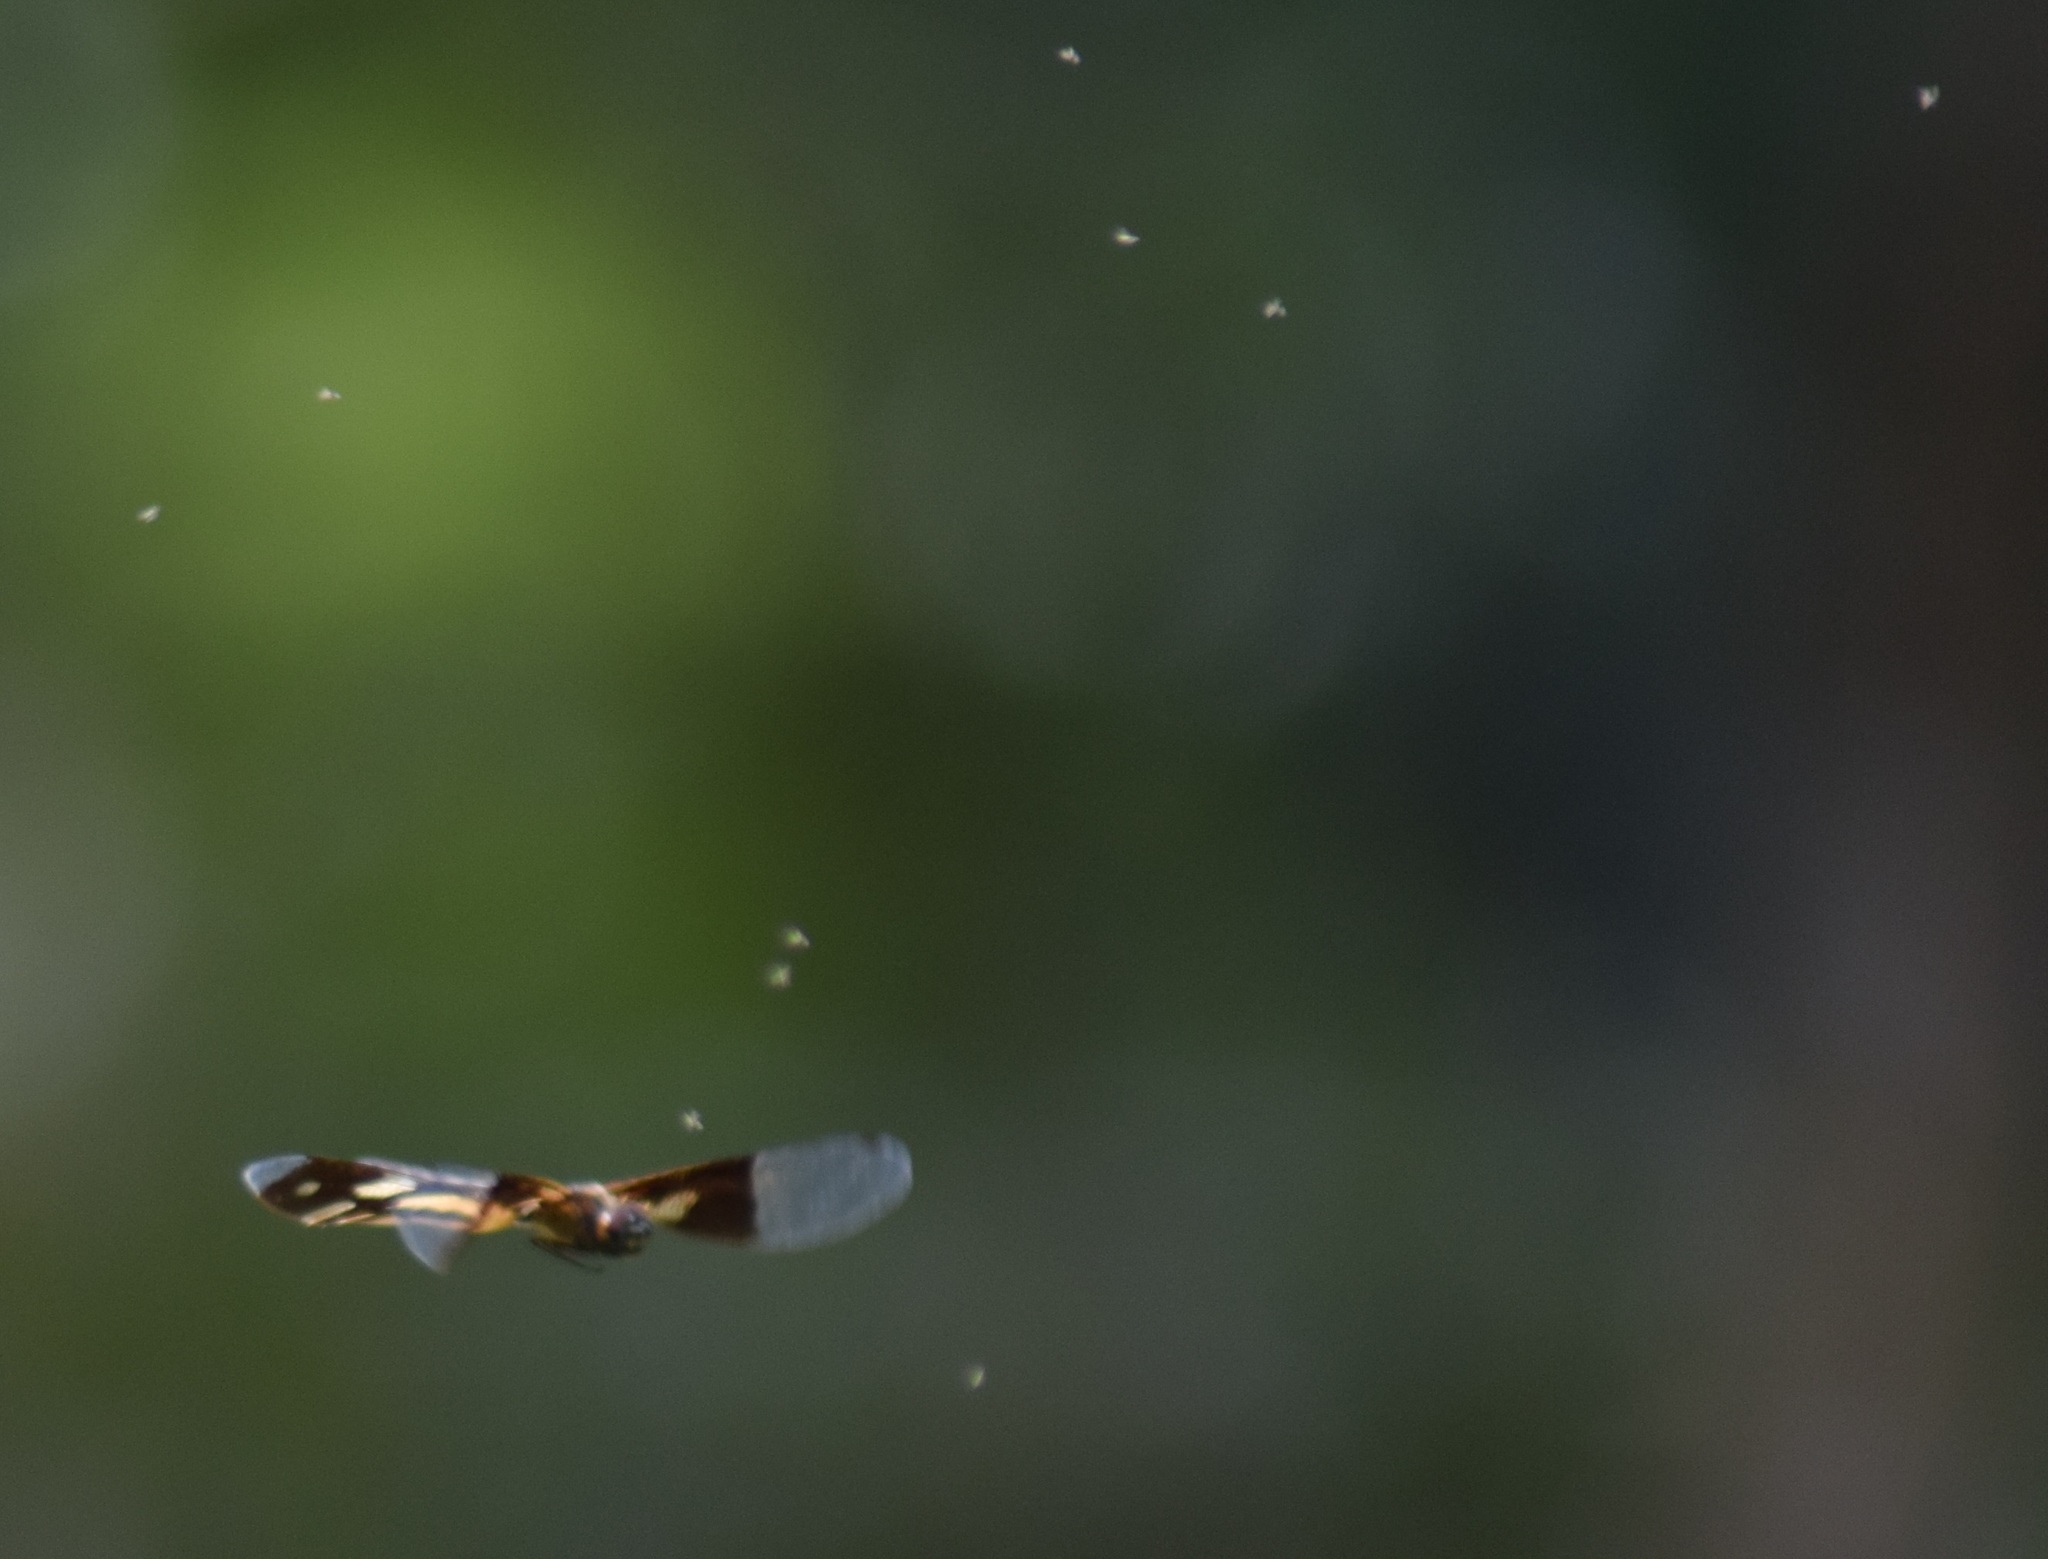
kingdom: Animalia
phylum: Arthropoda
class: Insecta
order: Odonata
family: Libellulidae
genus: Rhyothemis
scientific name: Rhyothemis variegata
